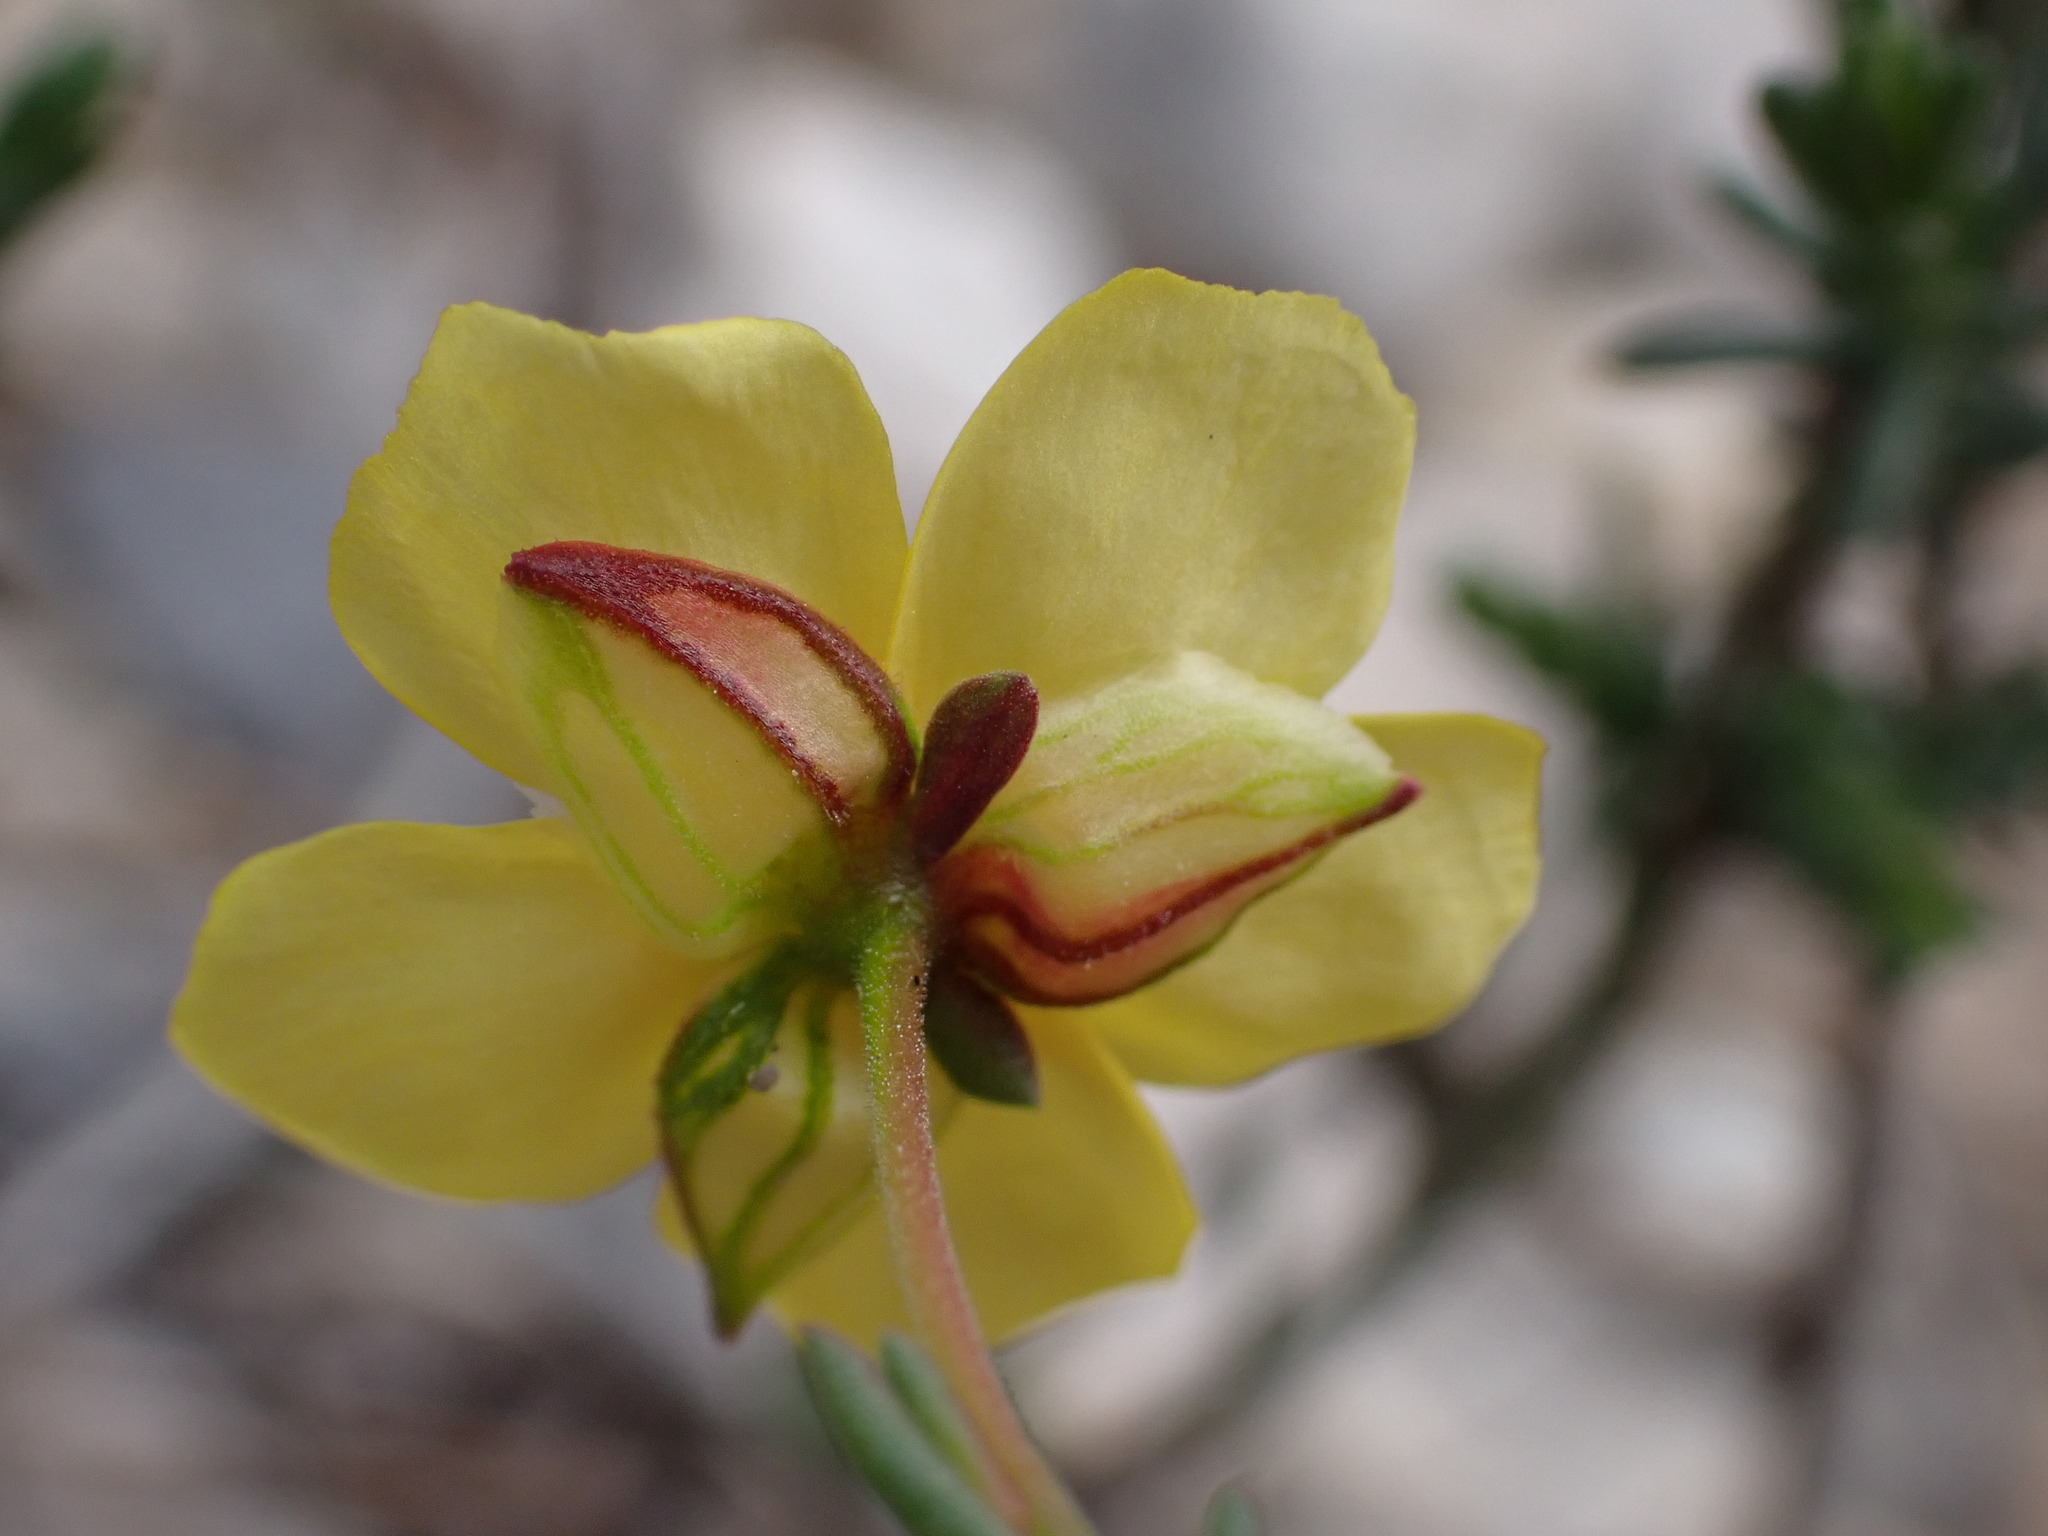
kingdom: Plantae
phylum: Tracheophyta
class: Magnoliopsida
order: Malvales
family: Cistaceae
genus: Fumana
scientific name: Fumana ericifolia
